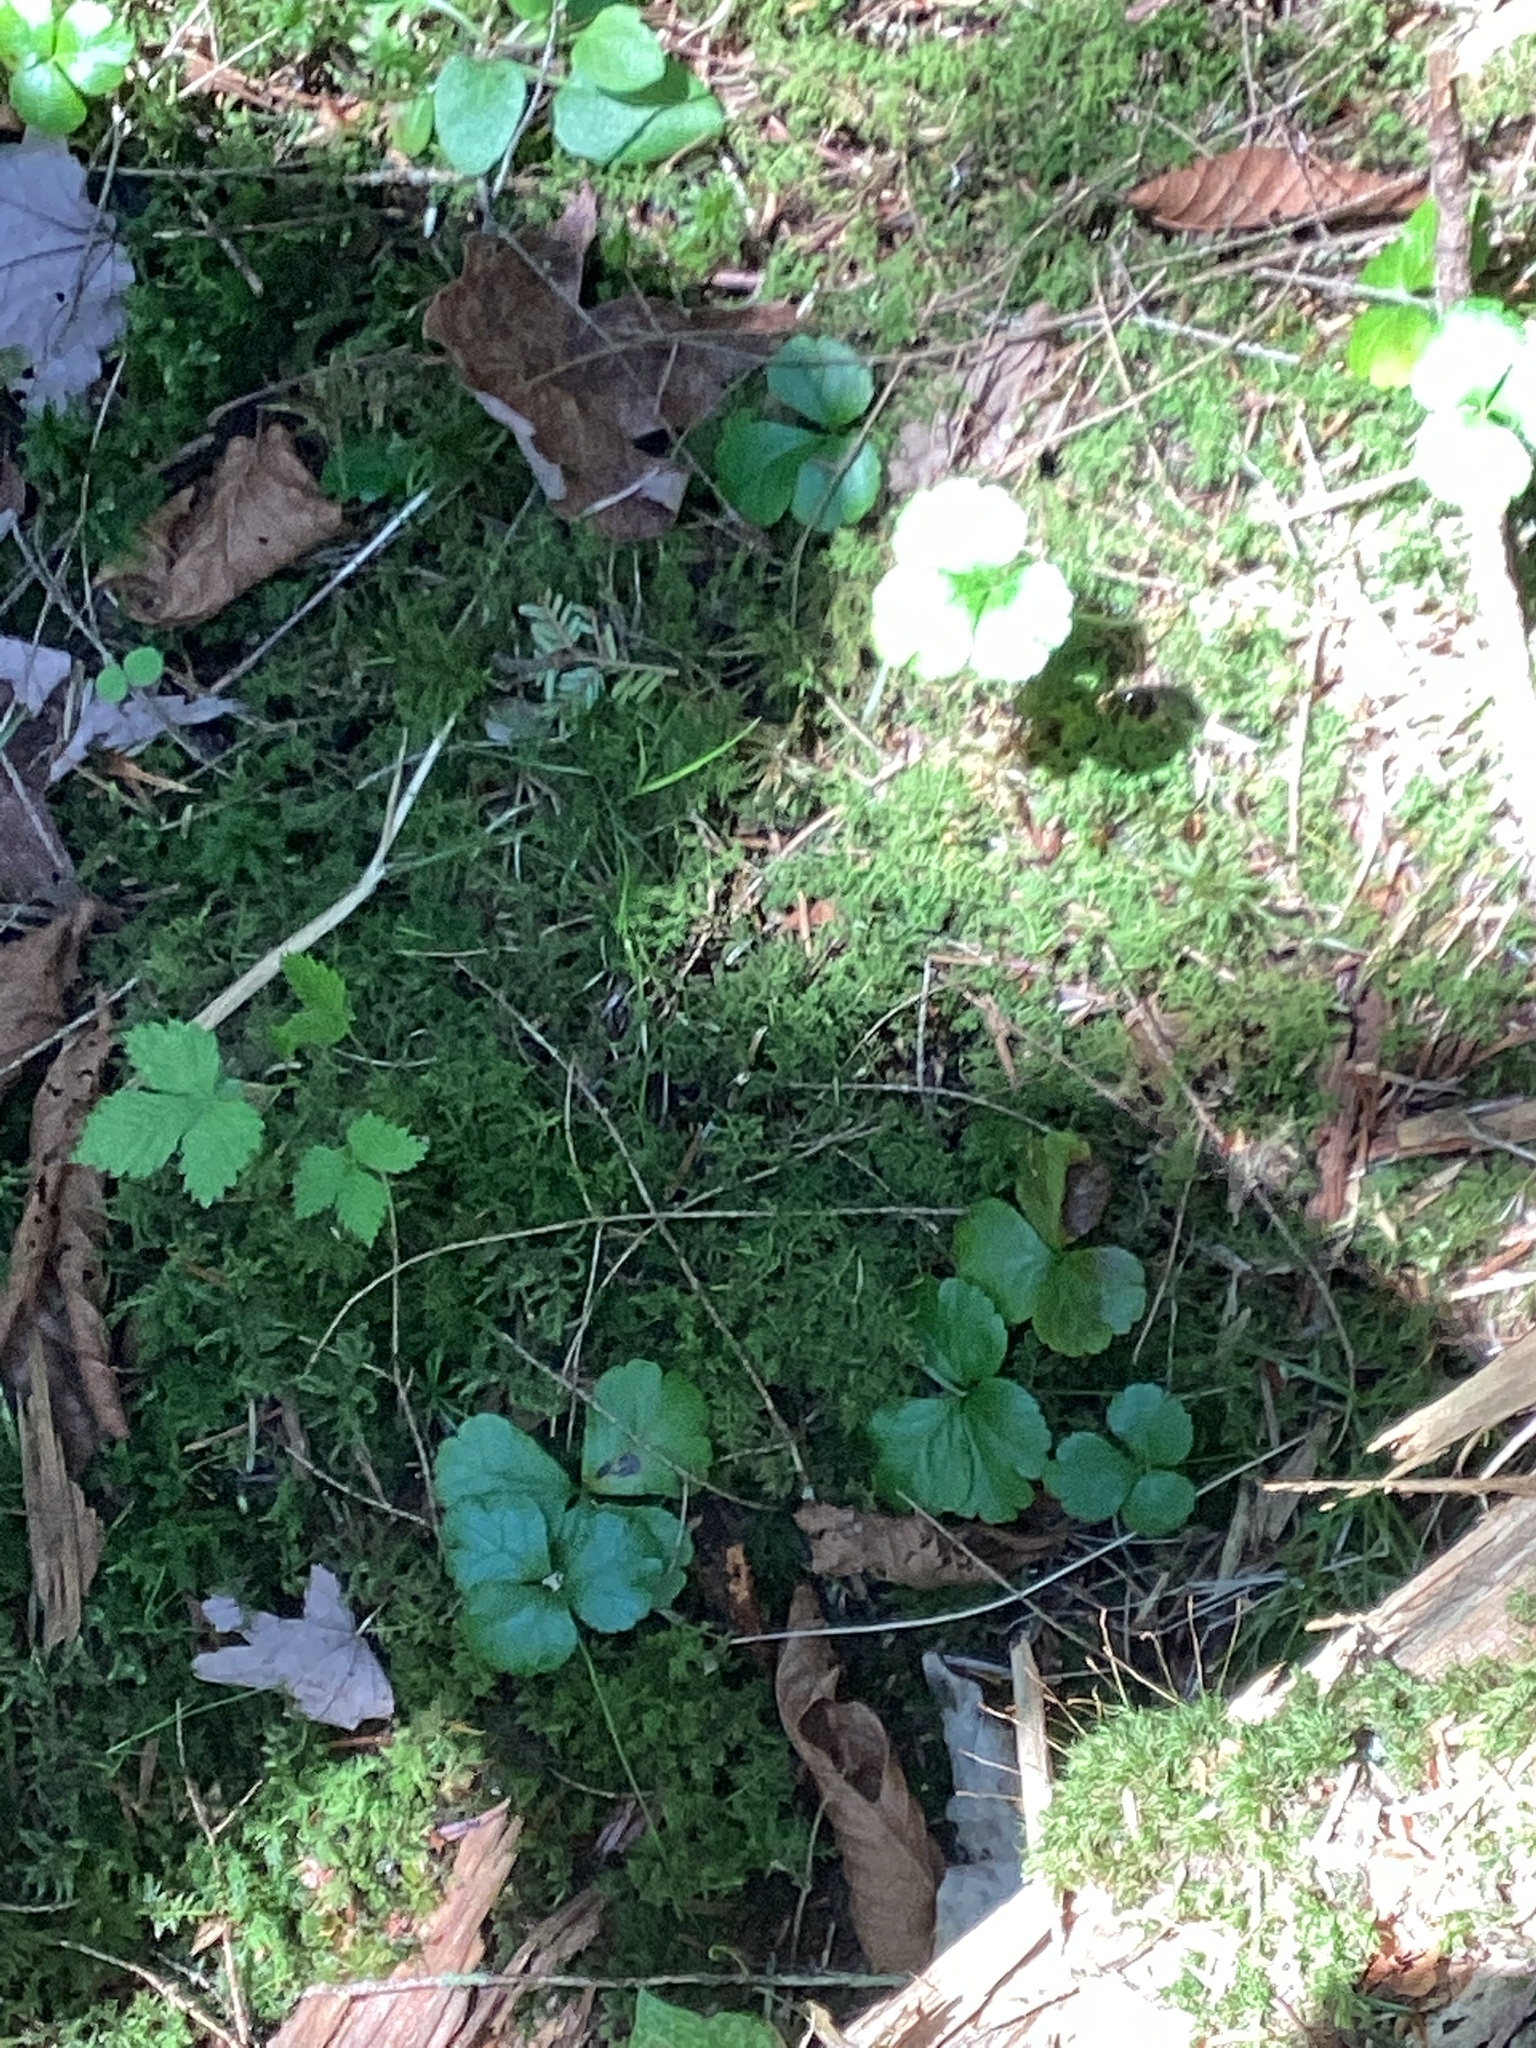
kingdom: Plantae
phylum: Tracheophyta
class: Magnoliopsida
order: Ranunculales
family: Ranunculaceae
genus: Coptis
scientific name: Coptis trifolia
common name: Canker-root
